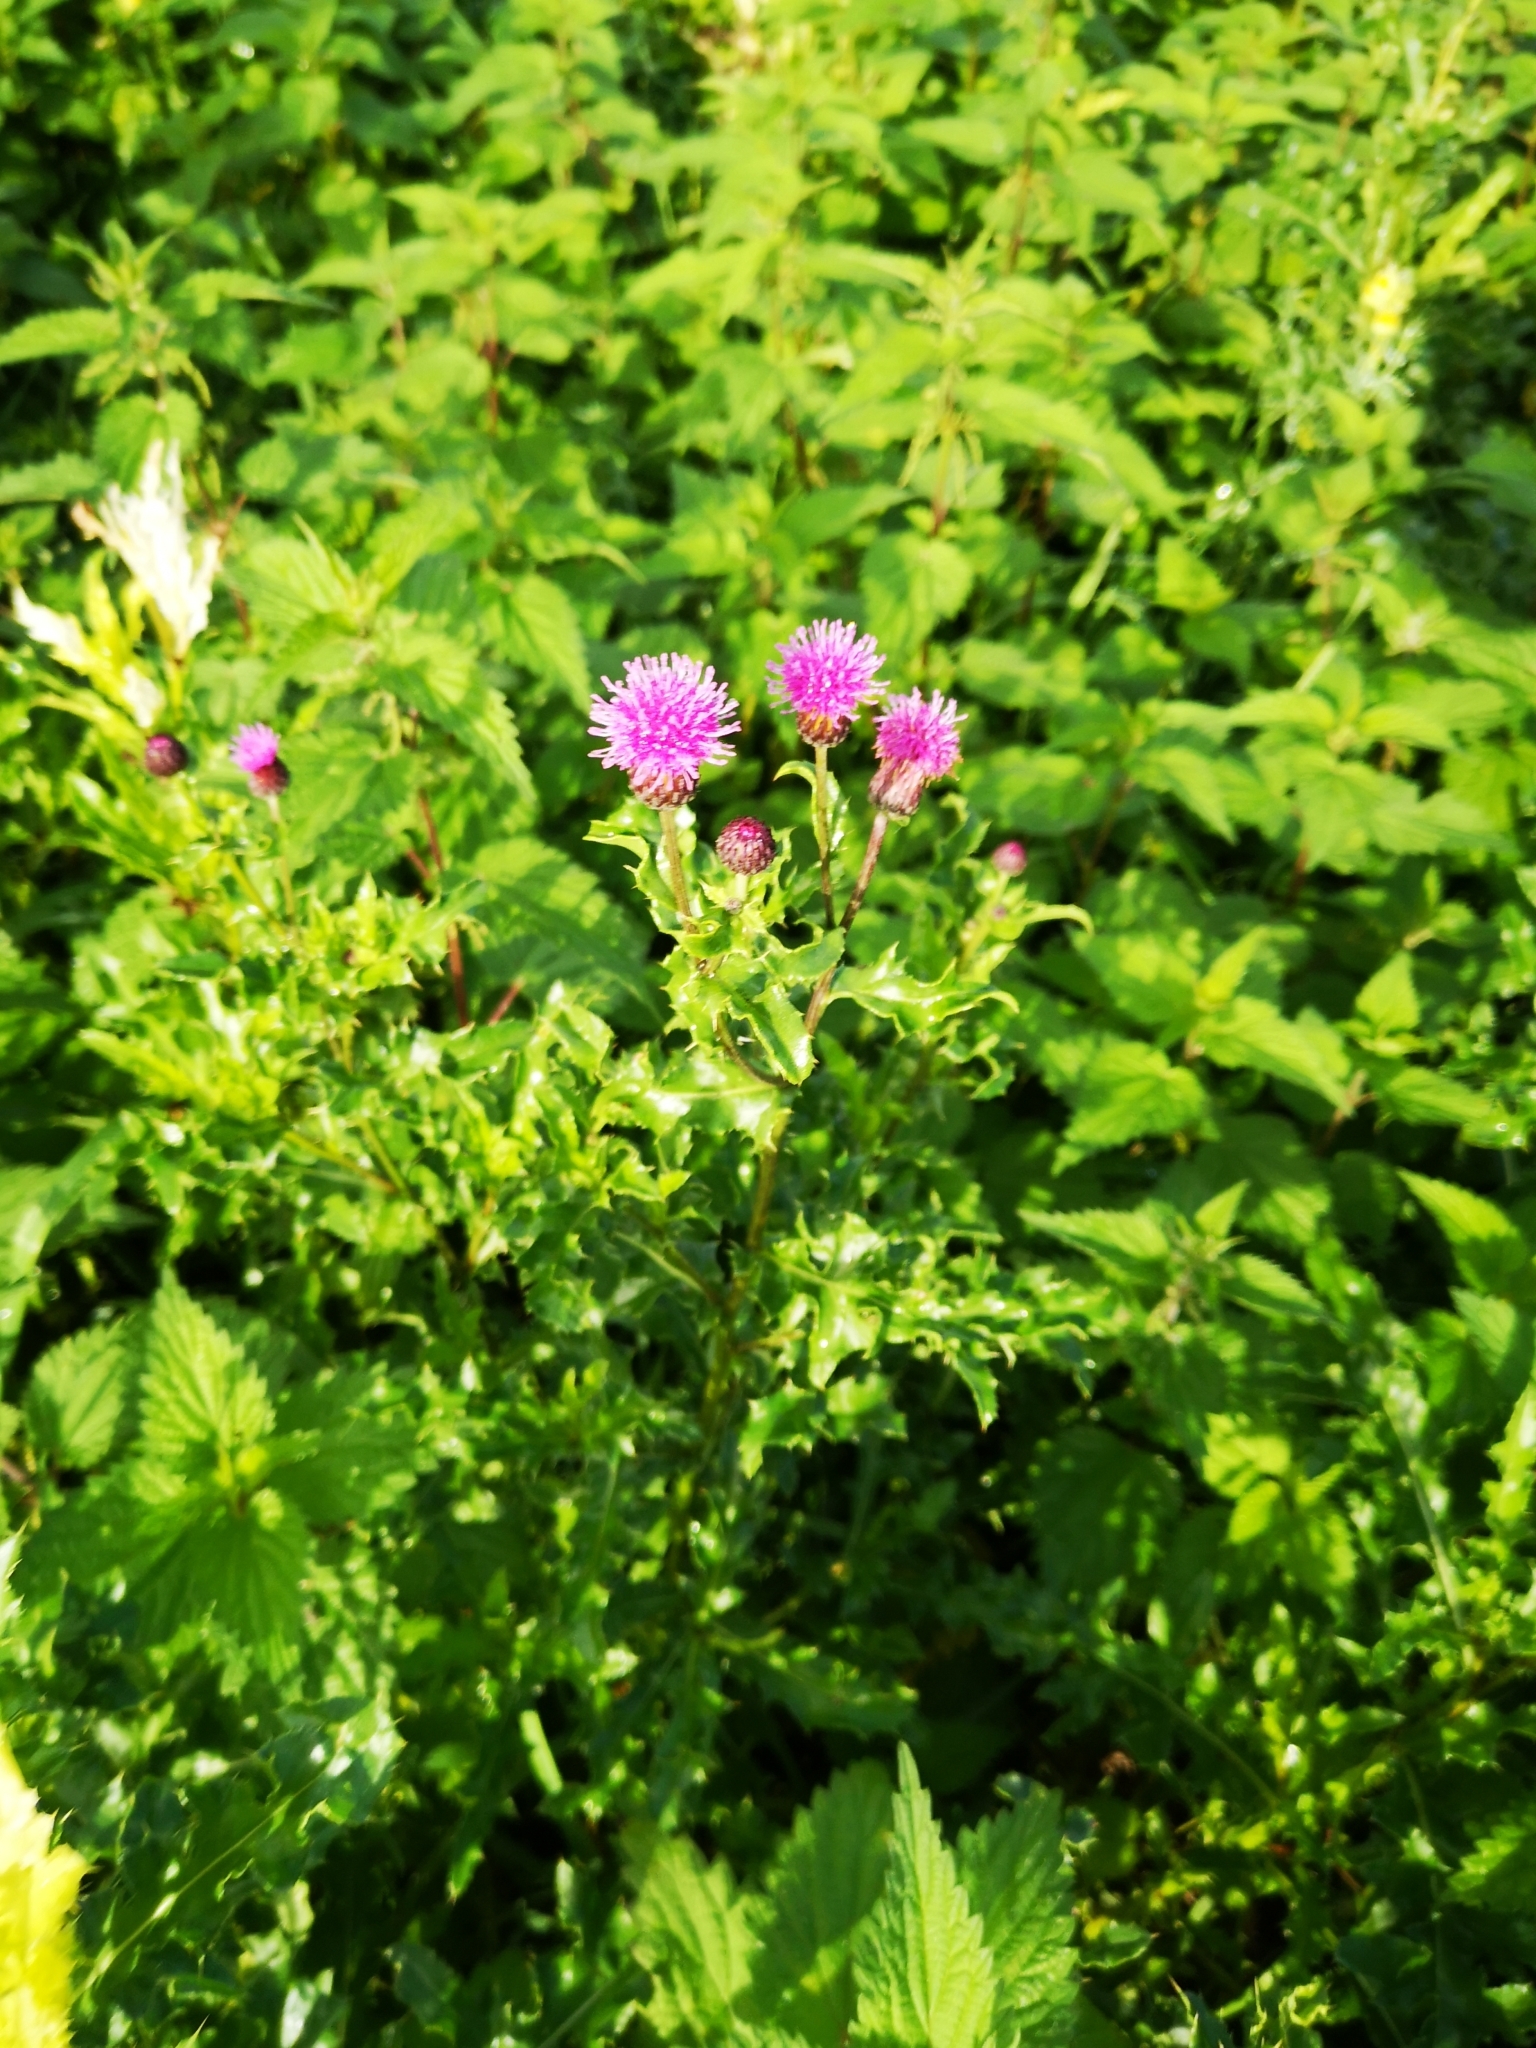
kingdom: Plantae
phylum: Tracheophyta
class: Magnoliopsida
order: Asterales
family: Asteraceae
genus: Cirsium
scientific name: Cirsium arvense
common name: Creeping thistle
